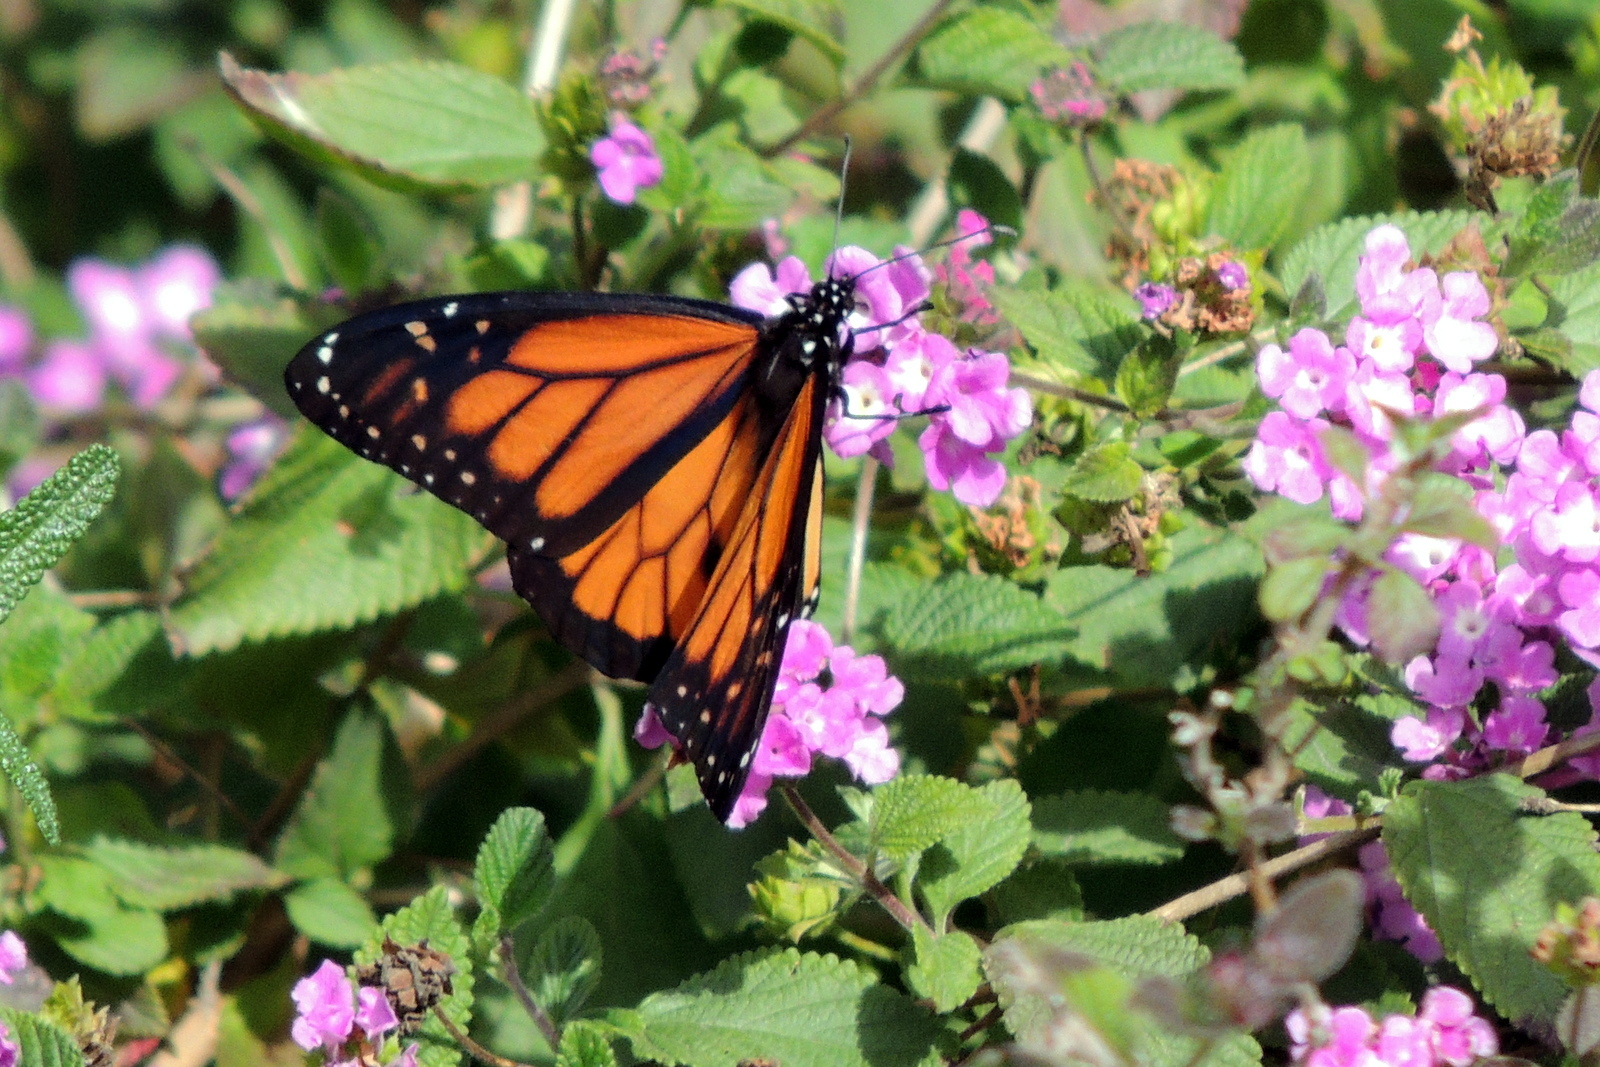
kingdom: Animalia
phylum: Arthropoda
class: Insecta
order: Lepidoptera
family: Nymphalidae
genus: Danaus
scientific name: Danaus plexippus
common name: Monarch
